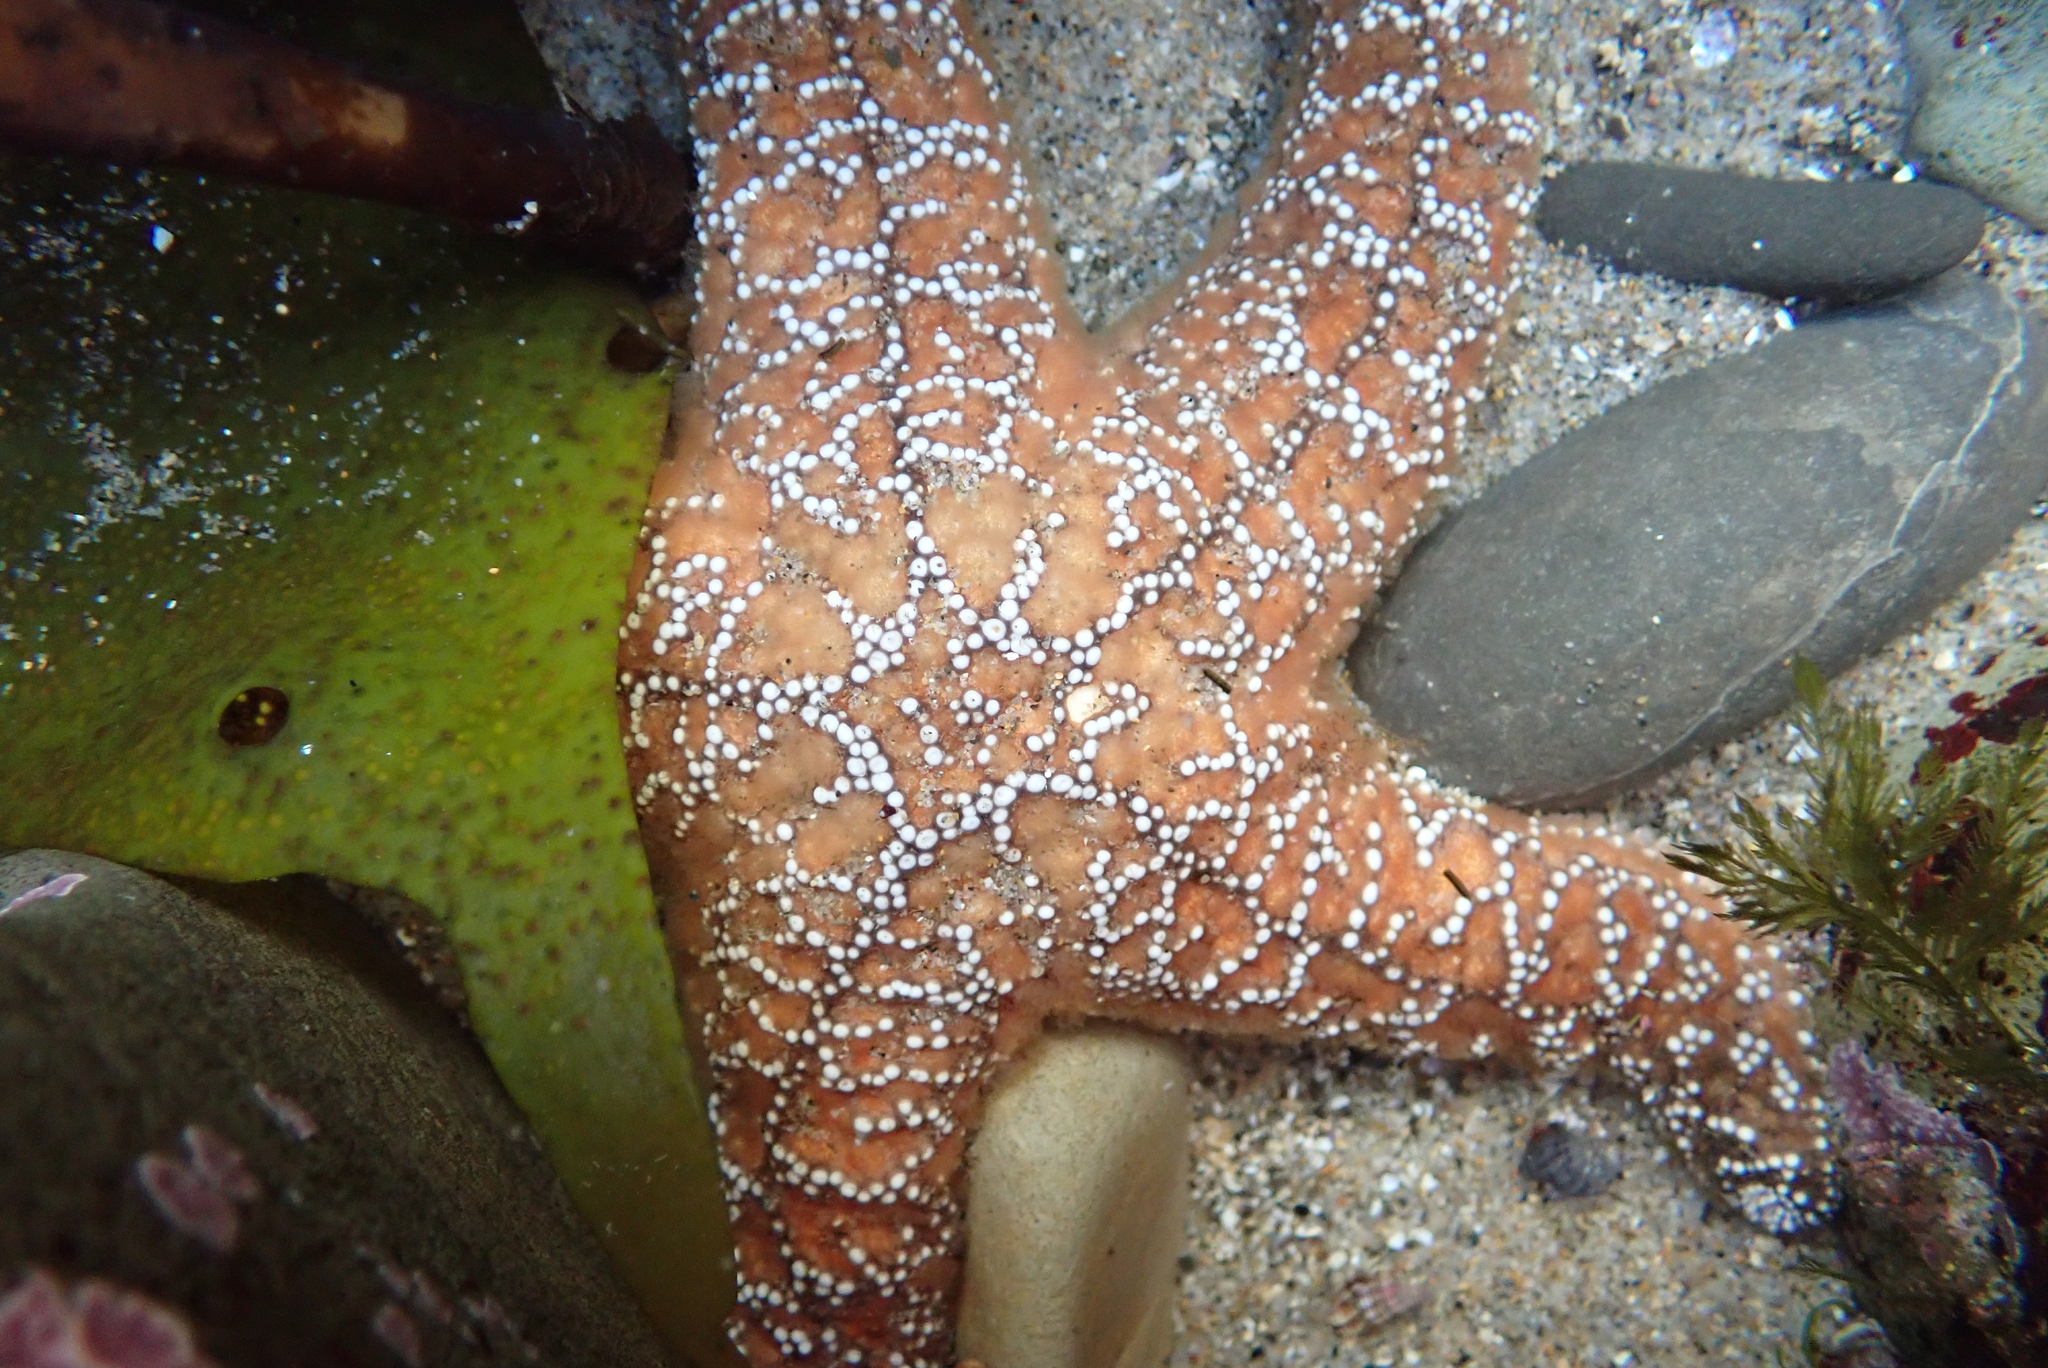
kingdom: Animalia
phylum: Echinodermata
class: Asteroidea
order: Forcipulatida
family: Asteriidae
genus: Pisaster
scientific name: Pisaster ochraceus
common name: Ochre stars
